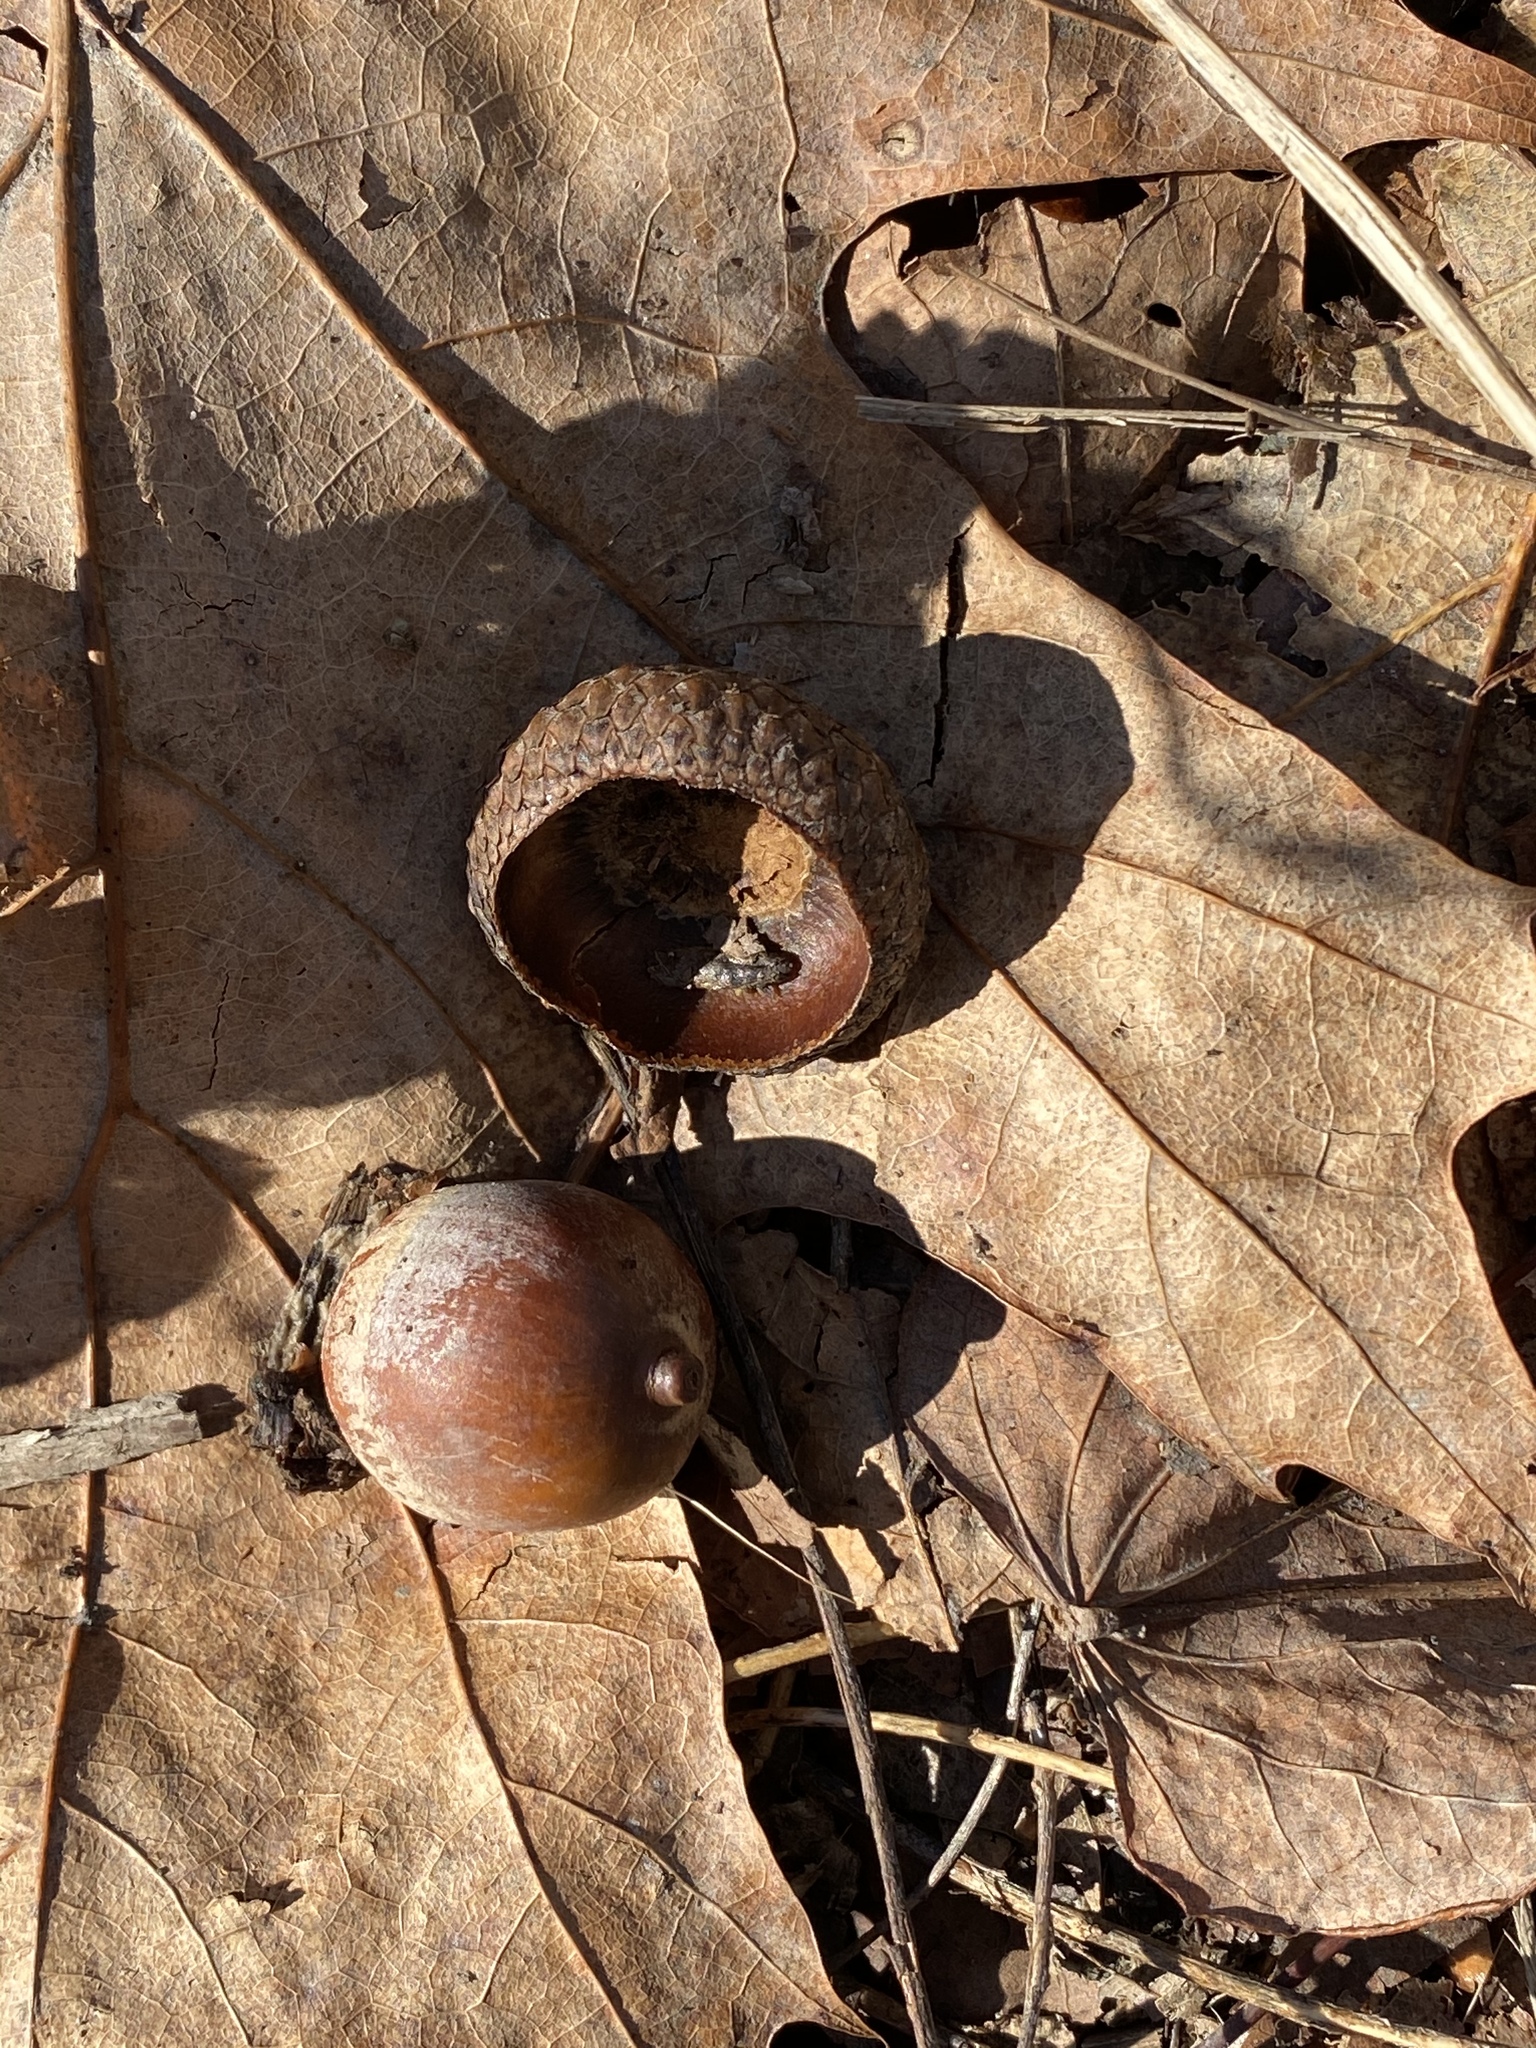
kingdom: Plantae
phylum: Tracheophyta
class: Magnoliopsida
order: Fagales
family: Fagaceae
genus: Quercus
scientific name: Quercus rubra
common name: Red oak
